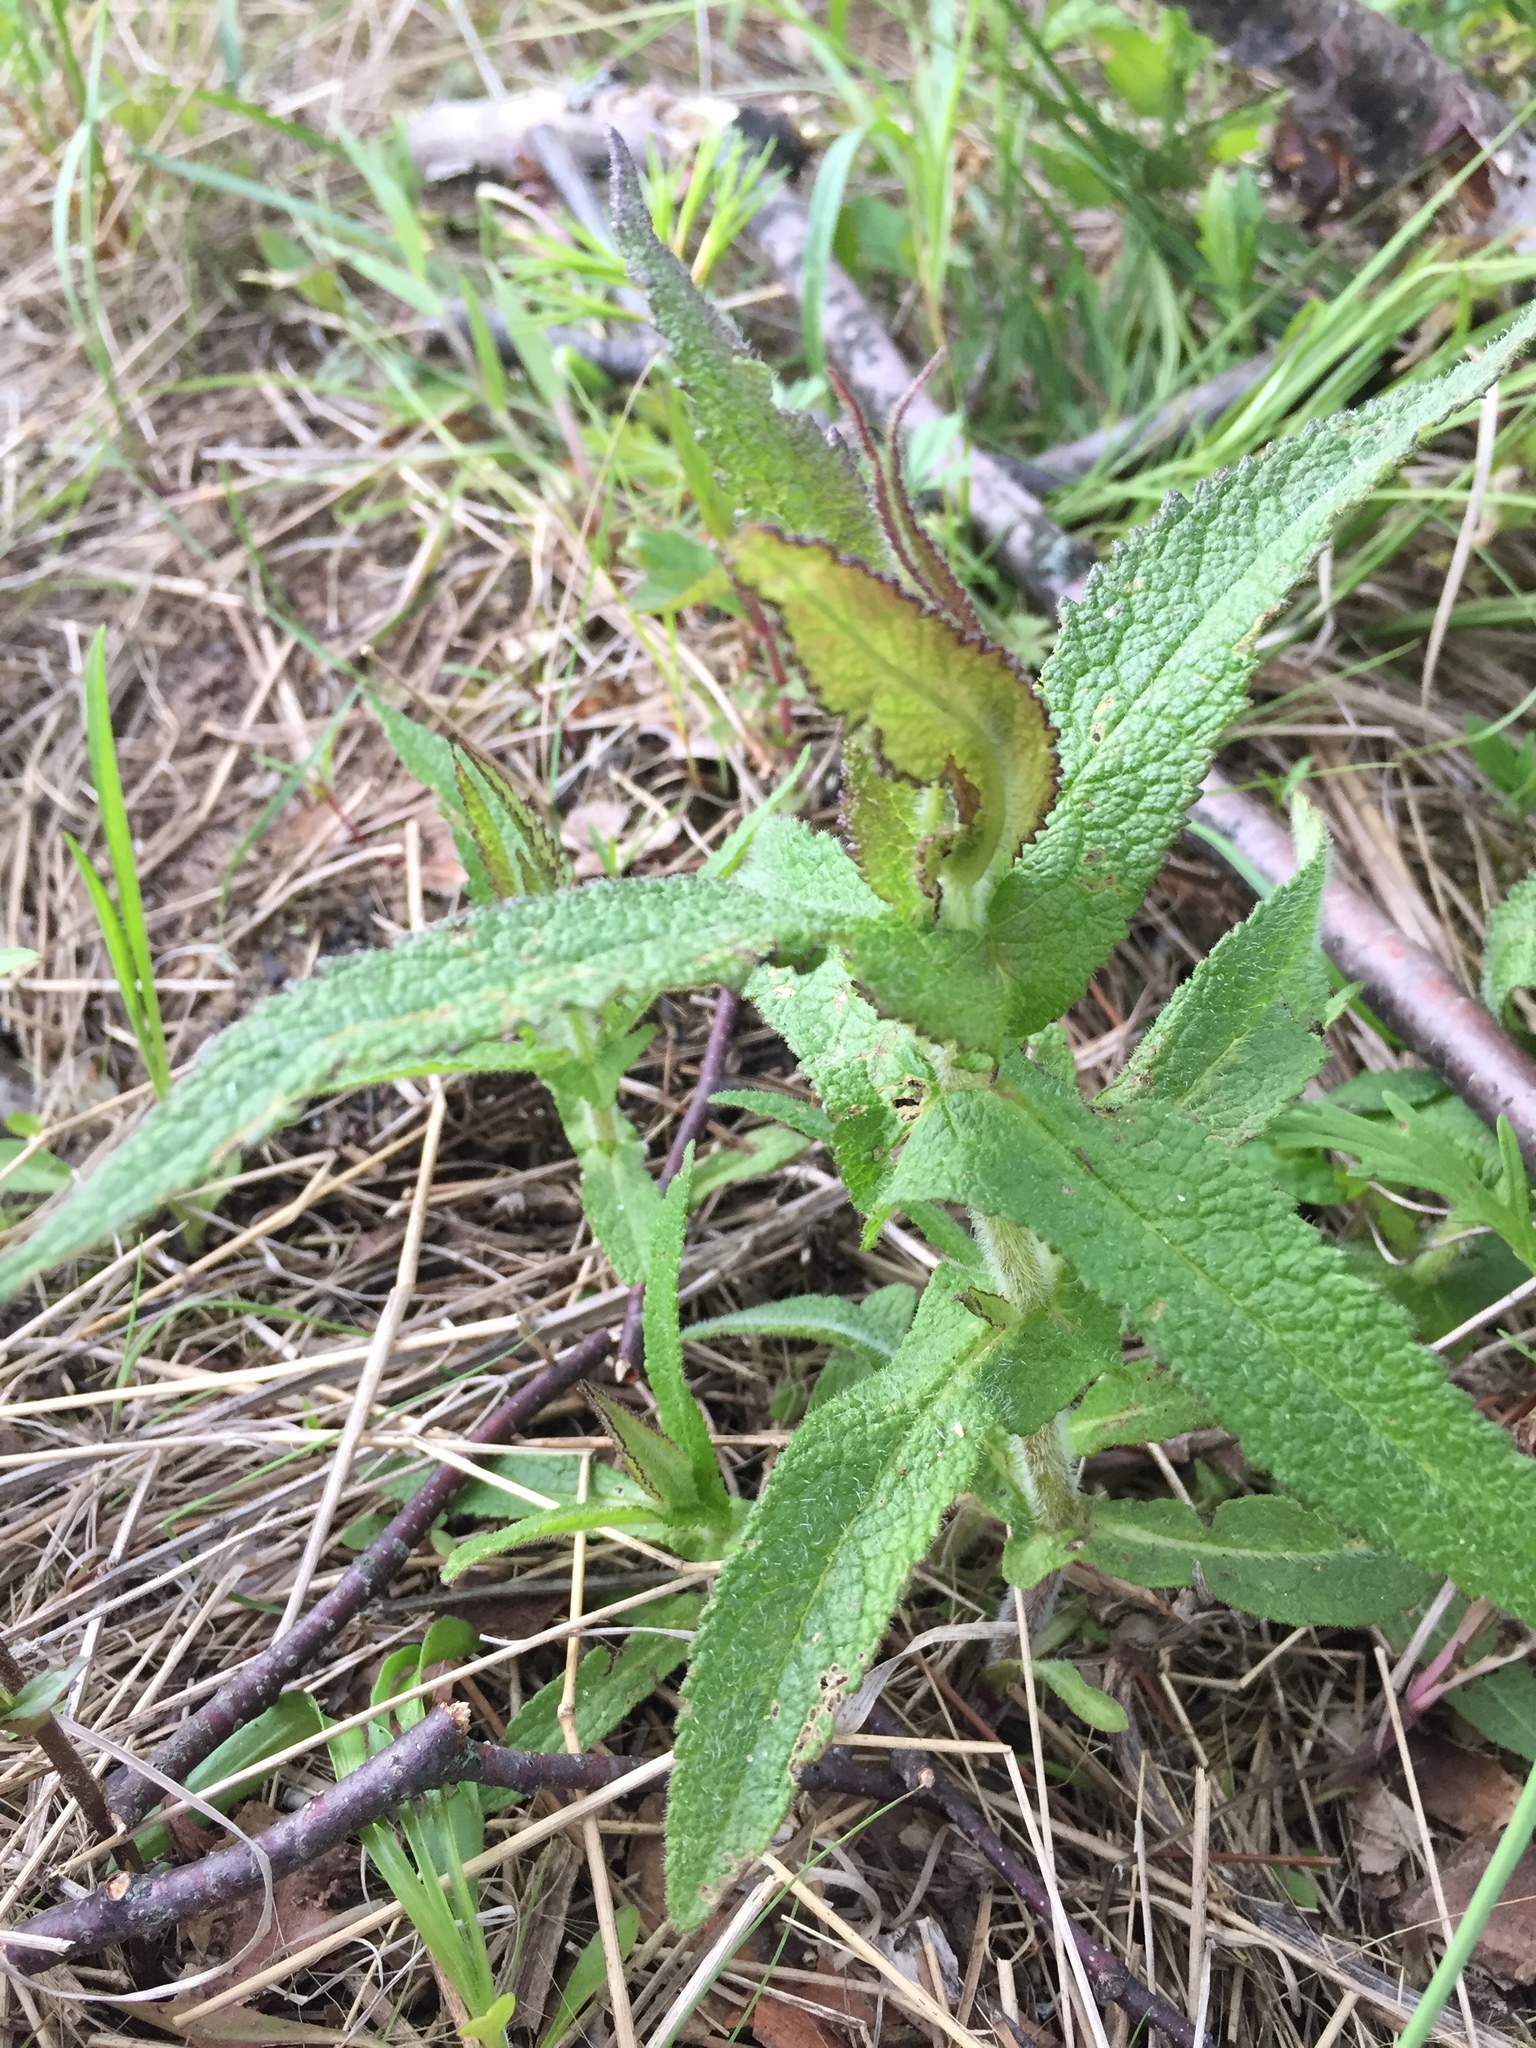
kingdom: Plantae
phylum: Tracheophyta
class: Magnoliopsida
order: Asterales
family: Asteraceae
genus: Eupatorium
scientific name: Eupatorium perfoliatum
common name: Boneset
